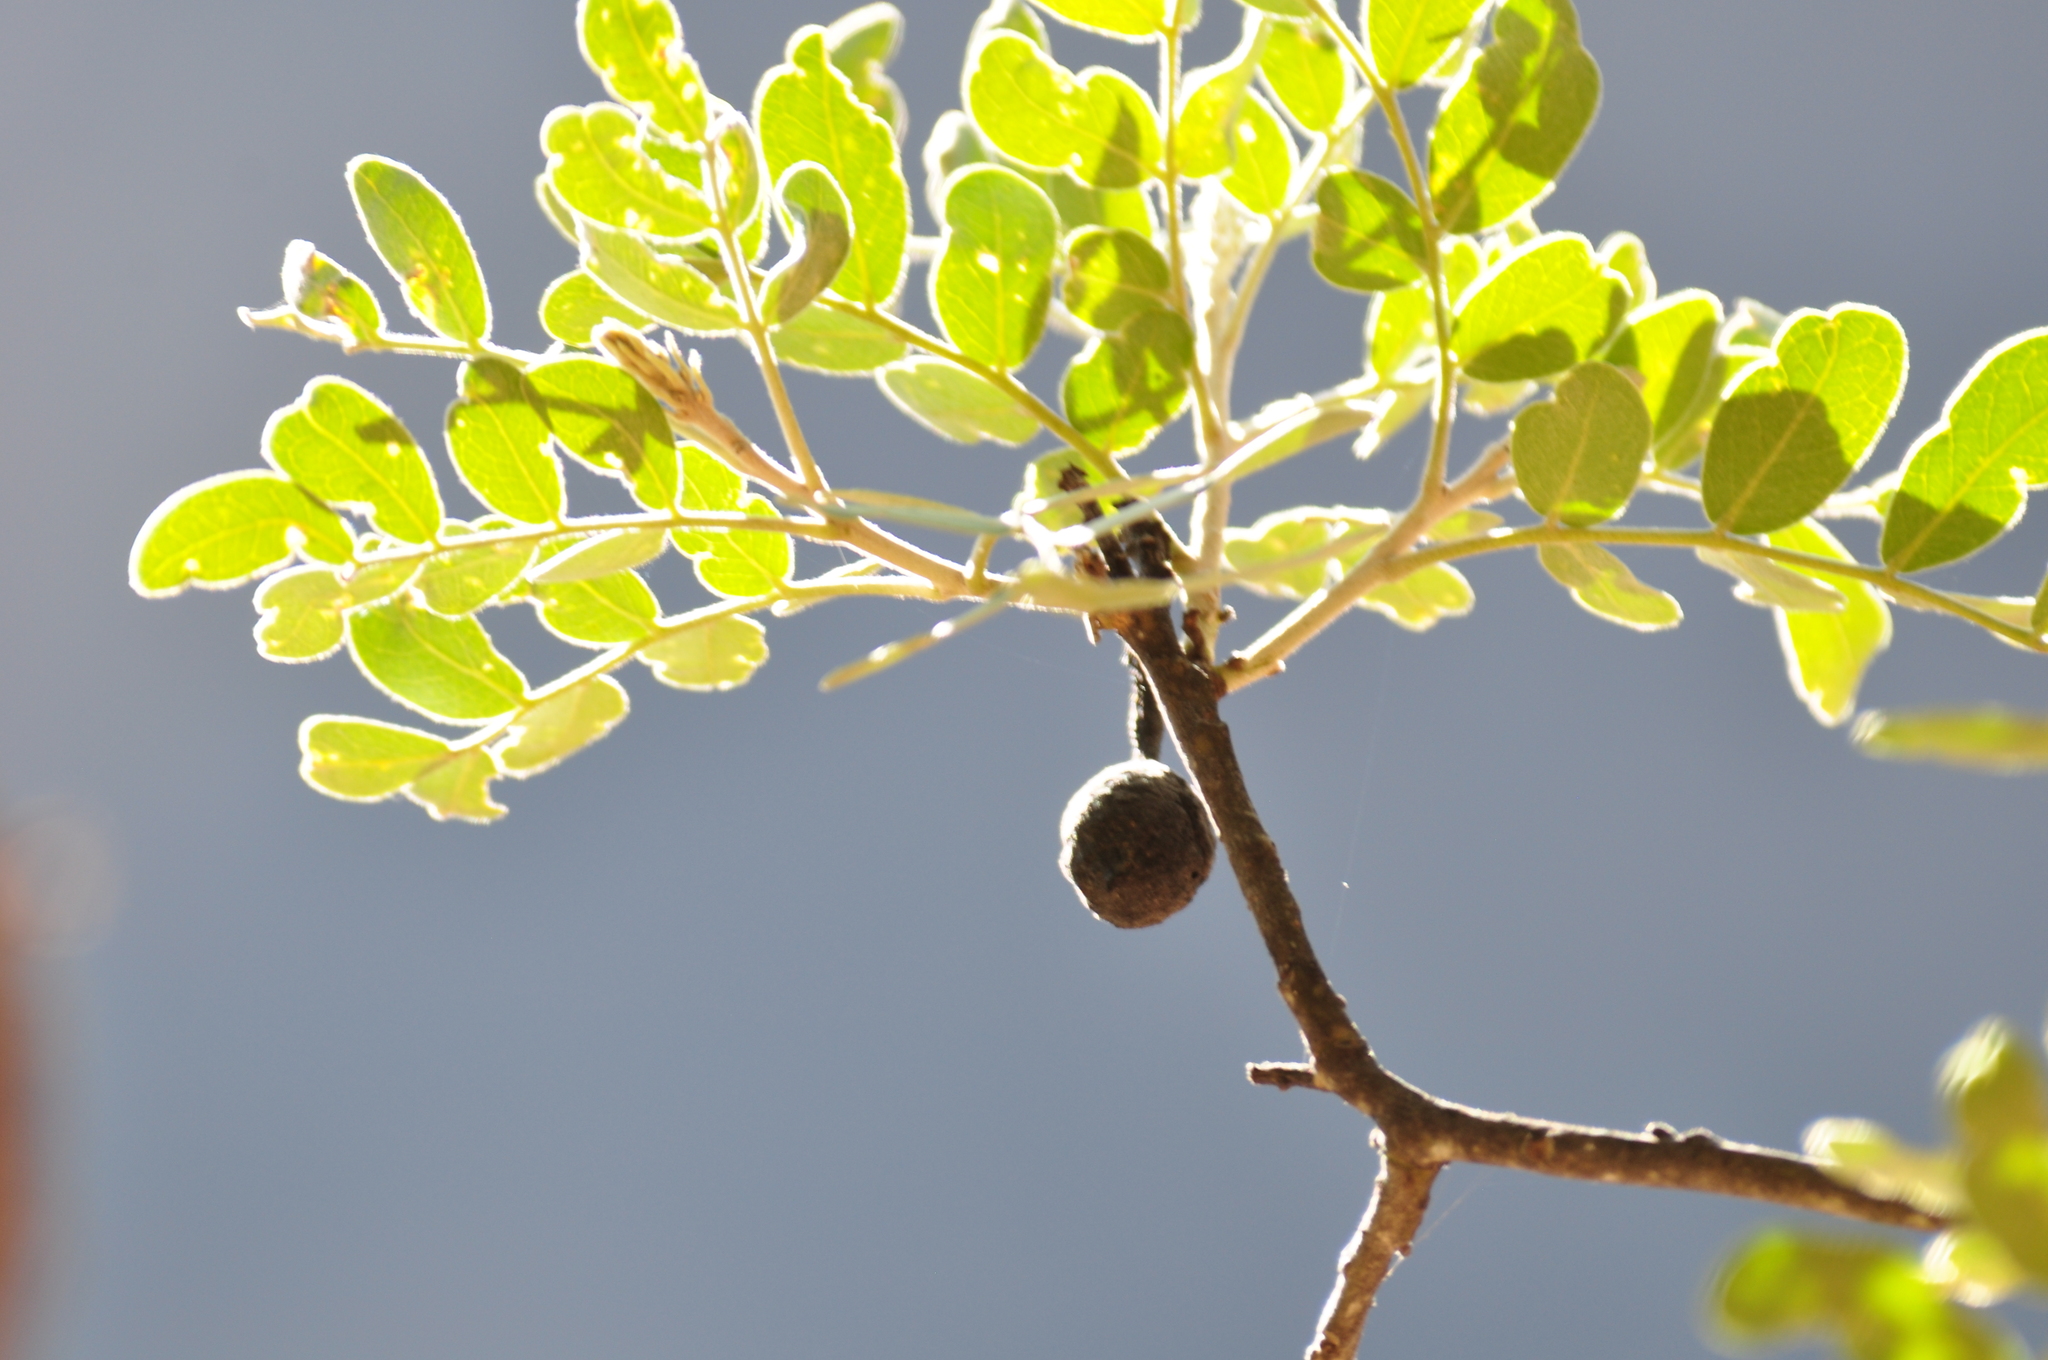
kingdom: Plantae
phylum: Tracheophyta
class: Magnoliopsida
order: Fabales
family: Fabaceae
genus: Dermatophyllum
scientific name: Dermatophyllum secundiflorum
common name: Texas-mountain-laurel
